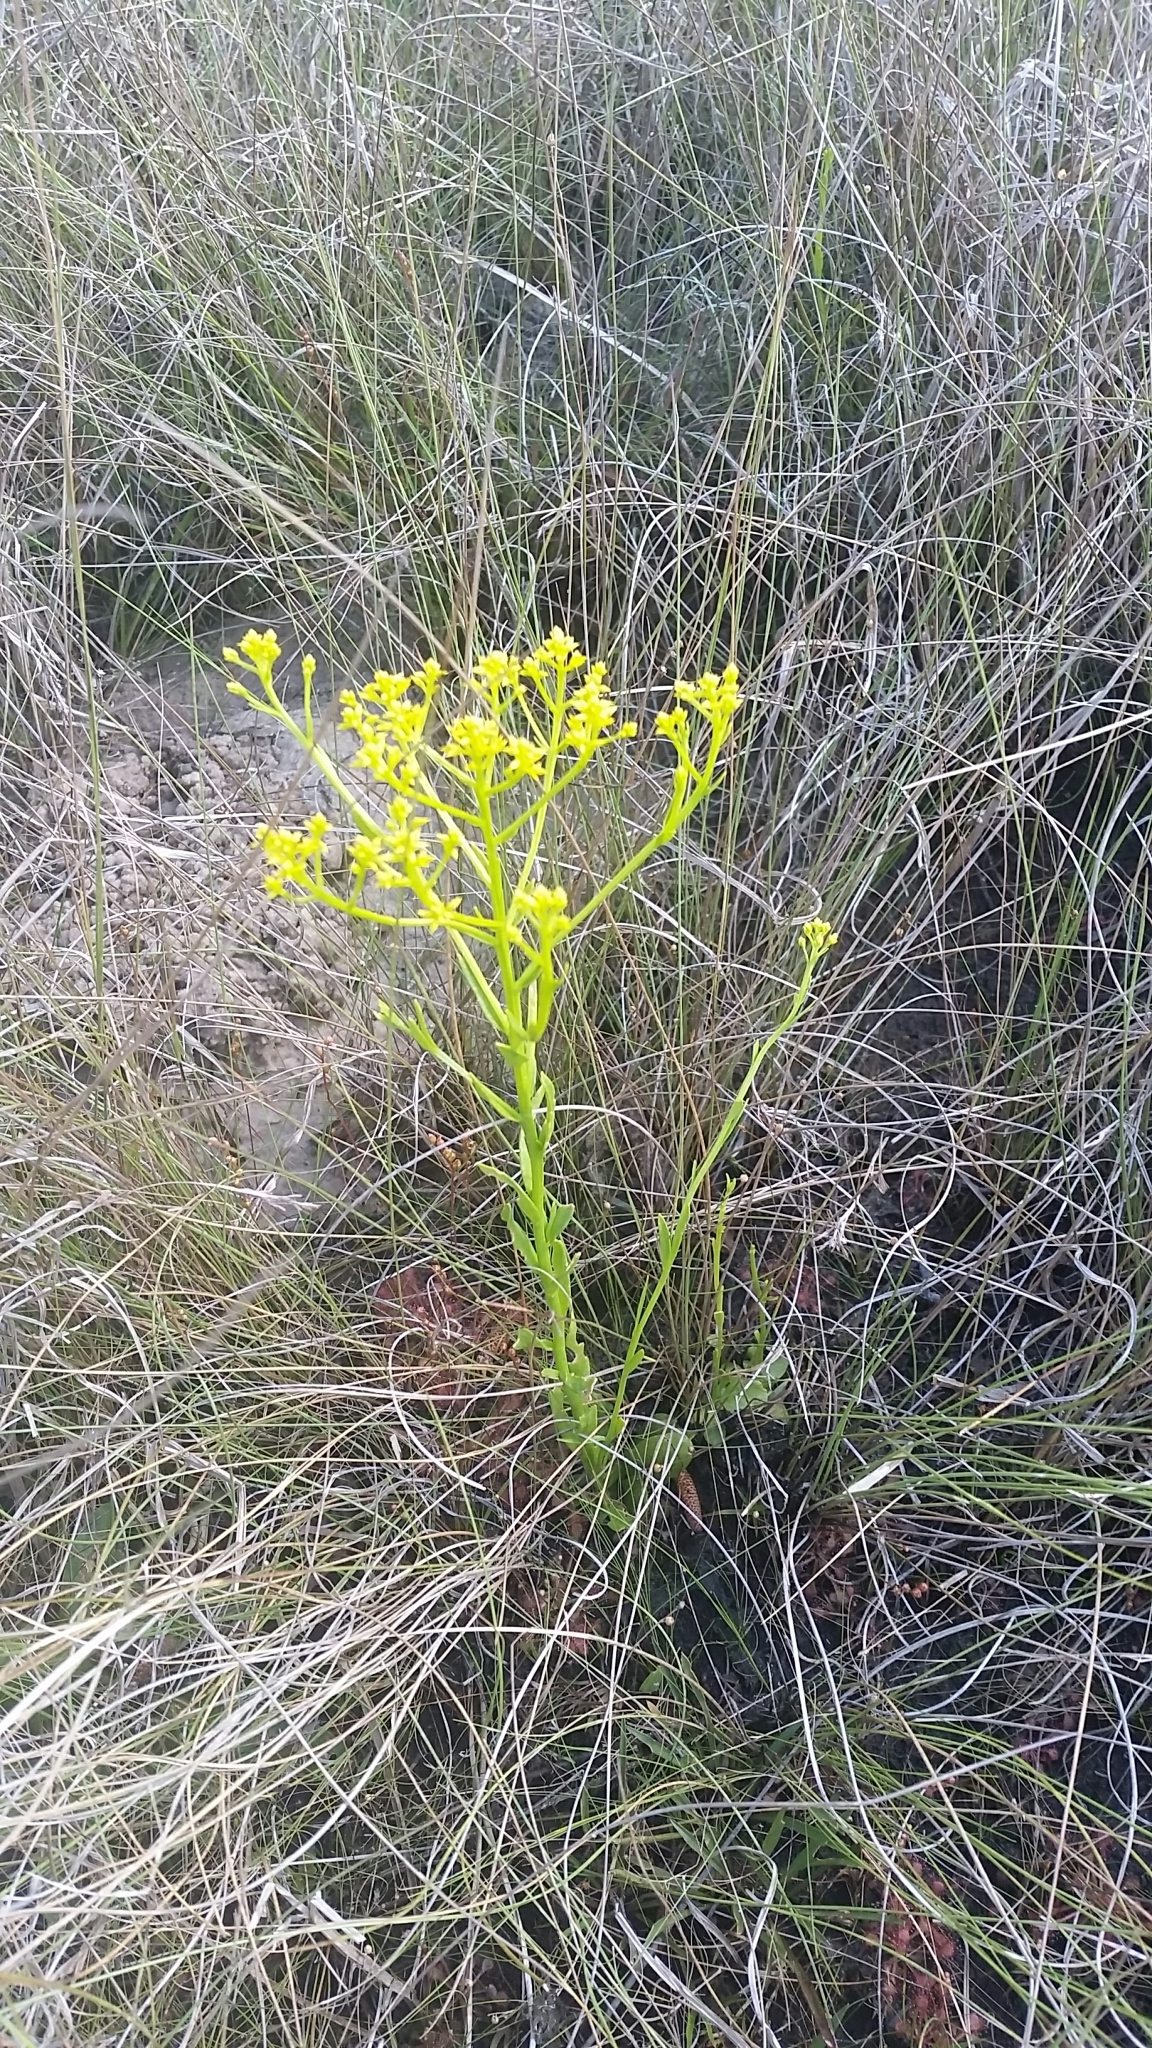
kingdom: Plantae
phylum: Tracheophyta
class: Magnoliopsida
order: Fabales
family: Polygalaceae
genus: Polygala
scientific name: Polygala ramosa
